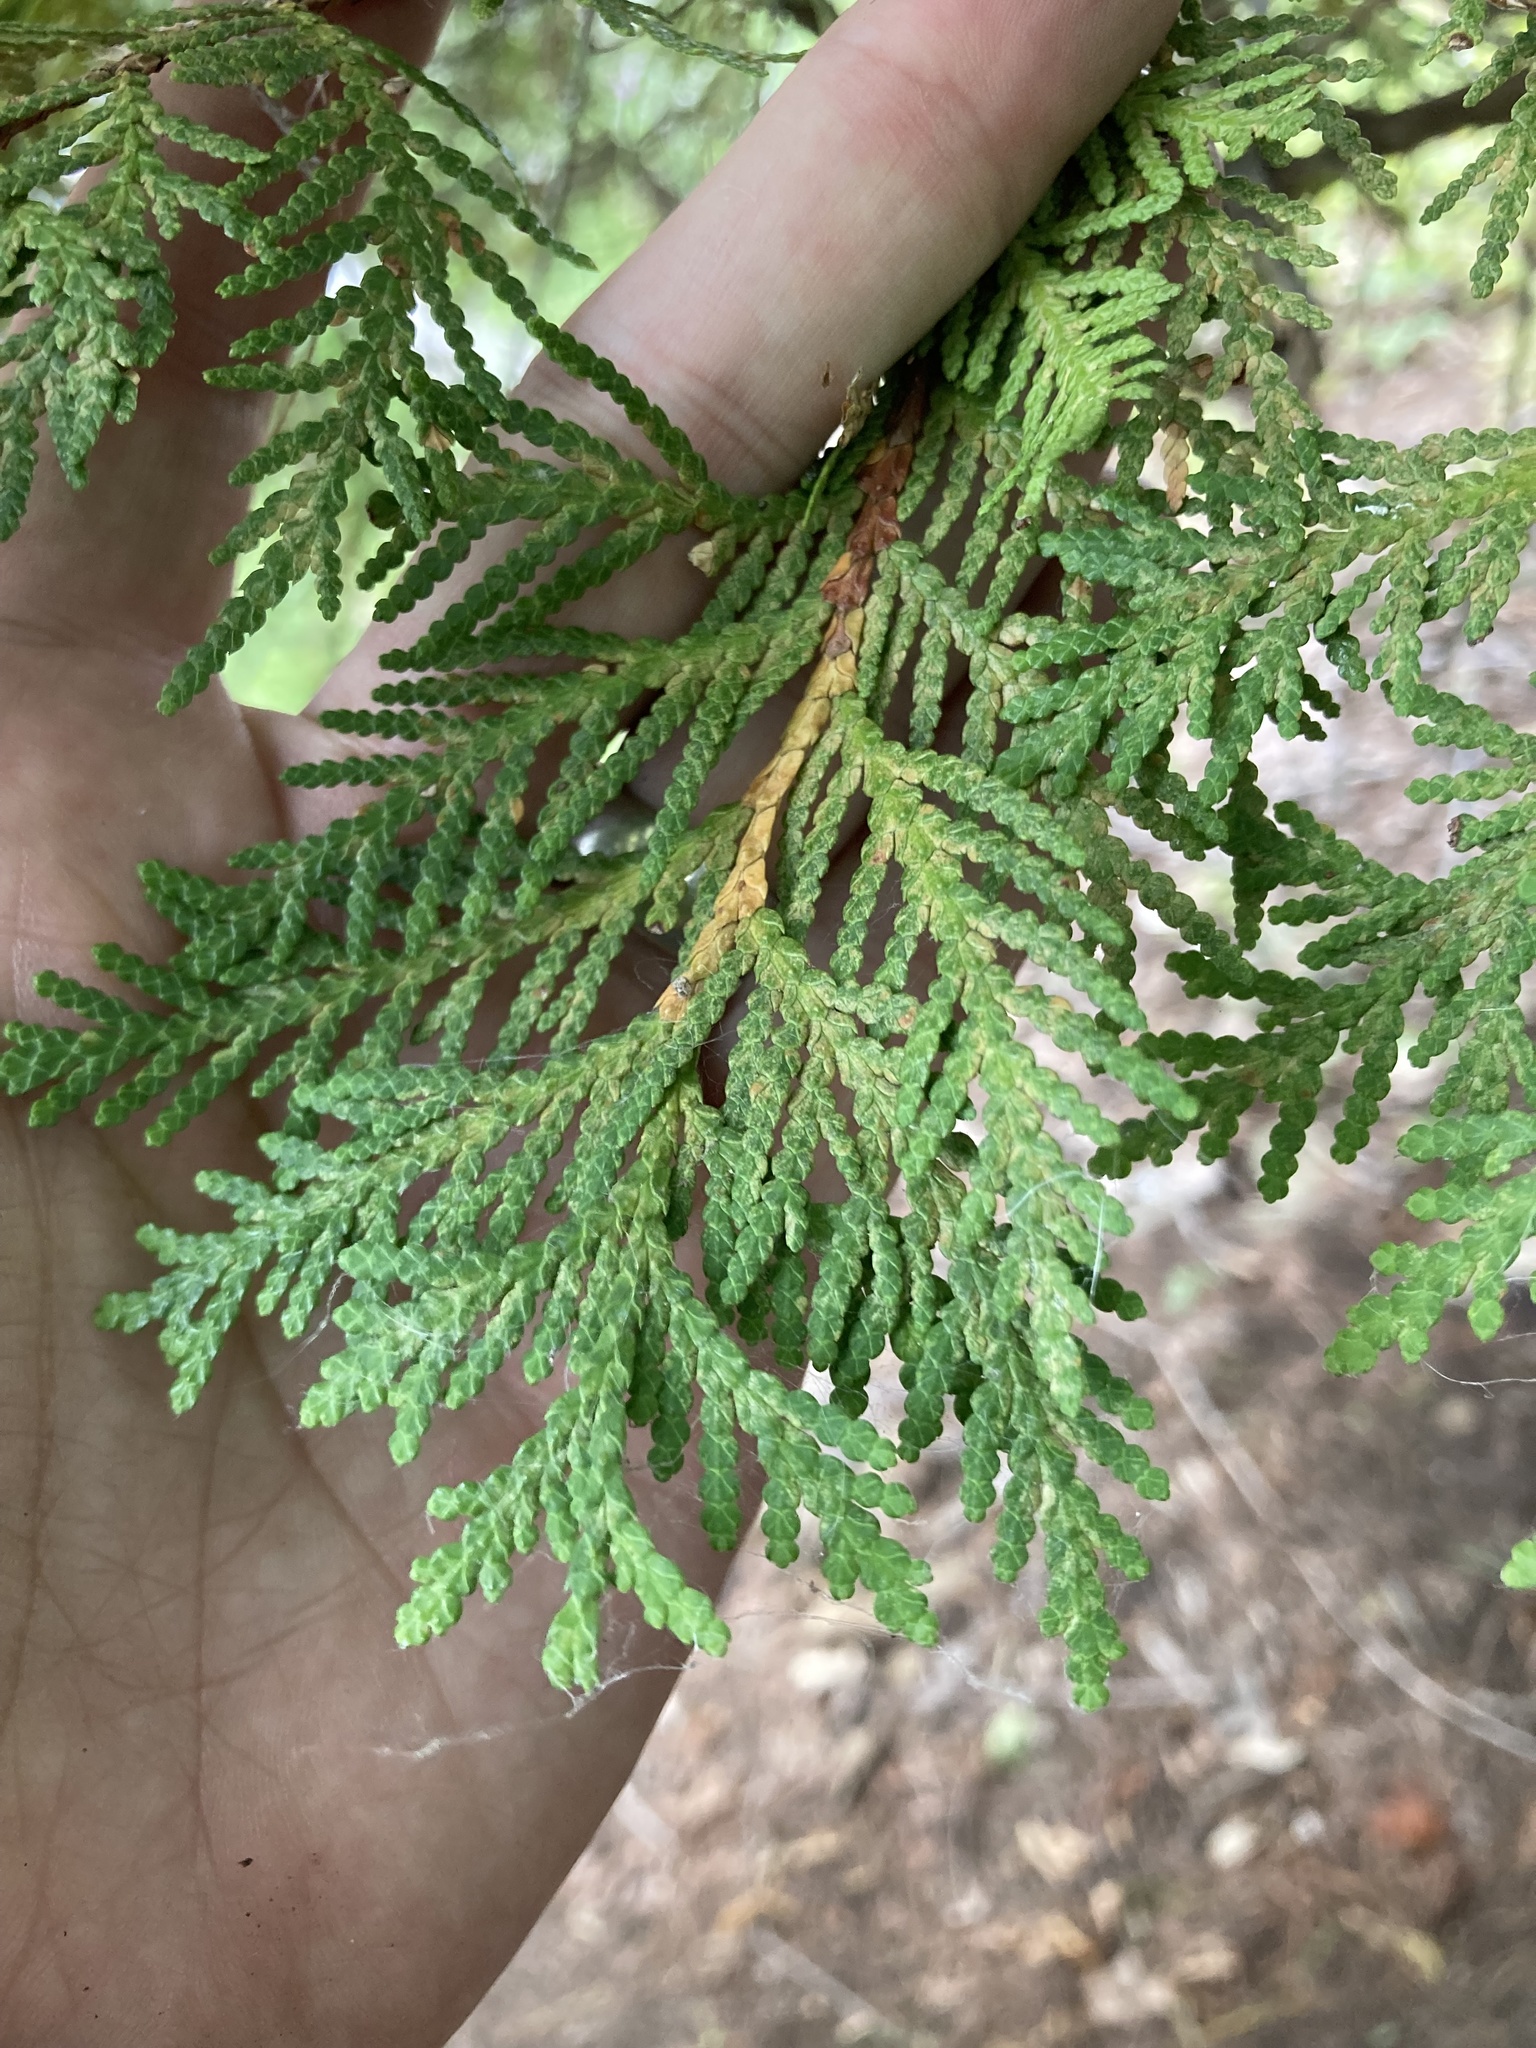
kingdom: Plantae
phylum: Tracheophyta
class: Pinopsida
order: Pinales
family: Cupressaceae
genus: Thuja
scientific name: Thuja occidentalis
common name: Northern white-cedar
